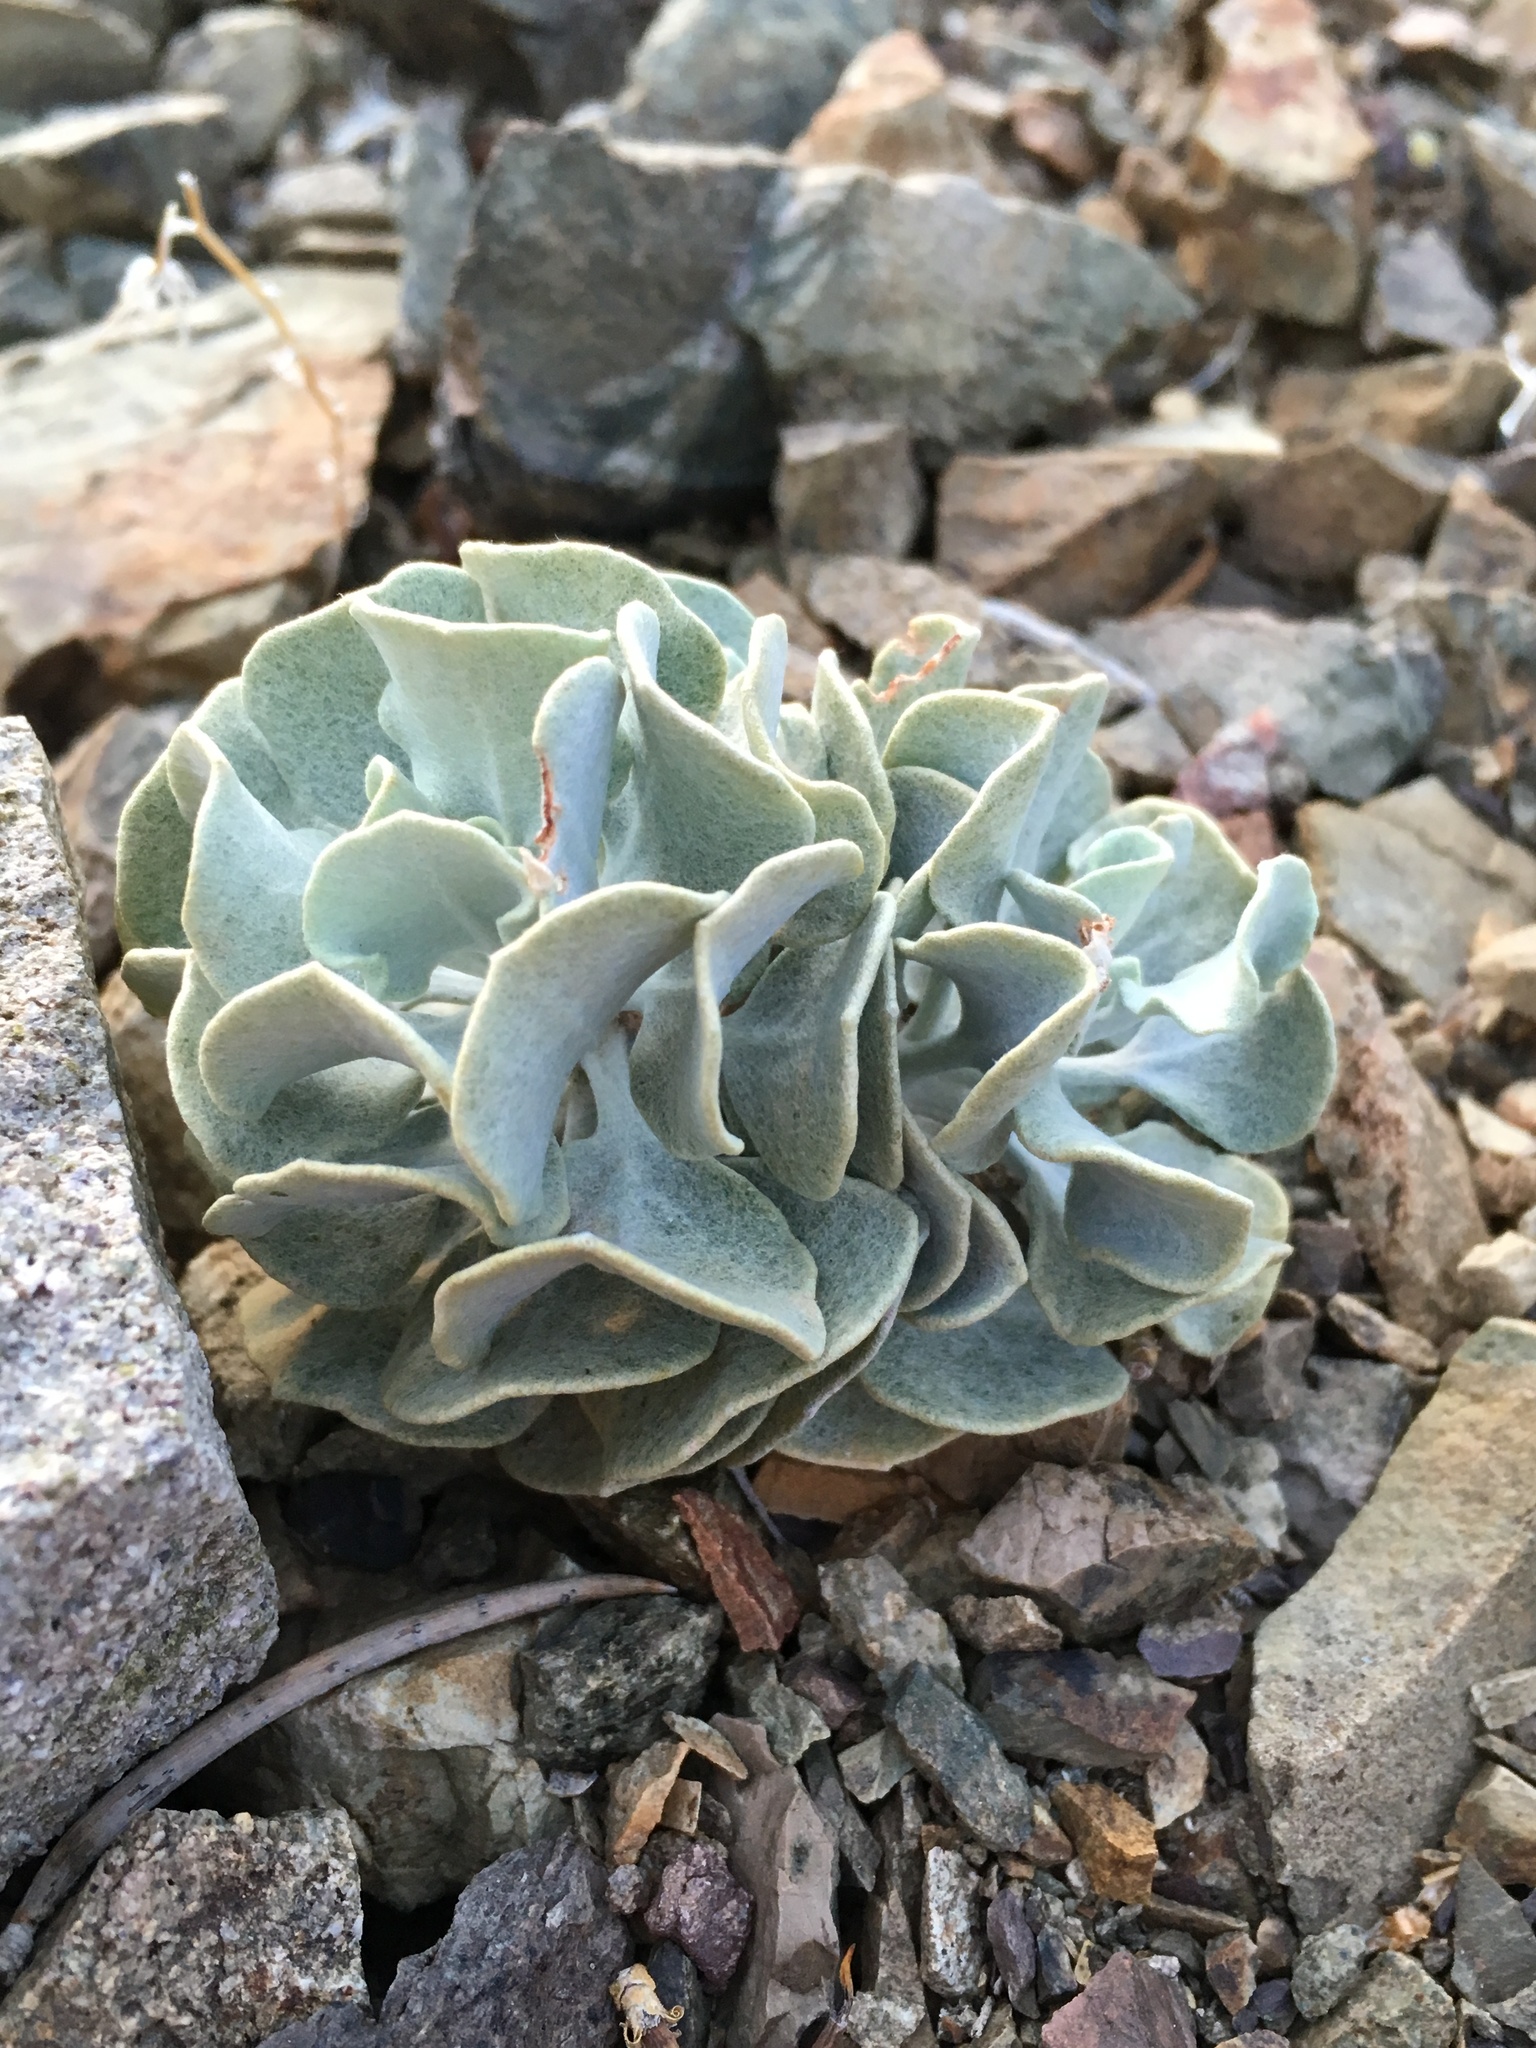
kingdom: Plantae
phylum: Tracheophyta
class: Magnoliopsida
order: Caryophyllales
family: Polygonaceae
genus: Eriogonum
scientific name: Eriogonum saxatile
